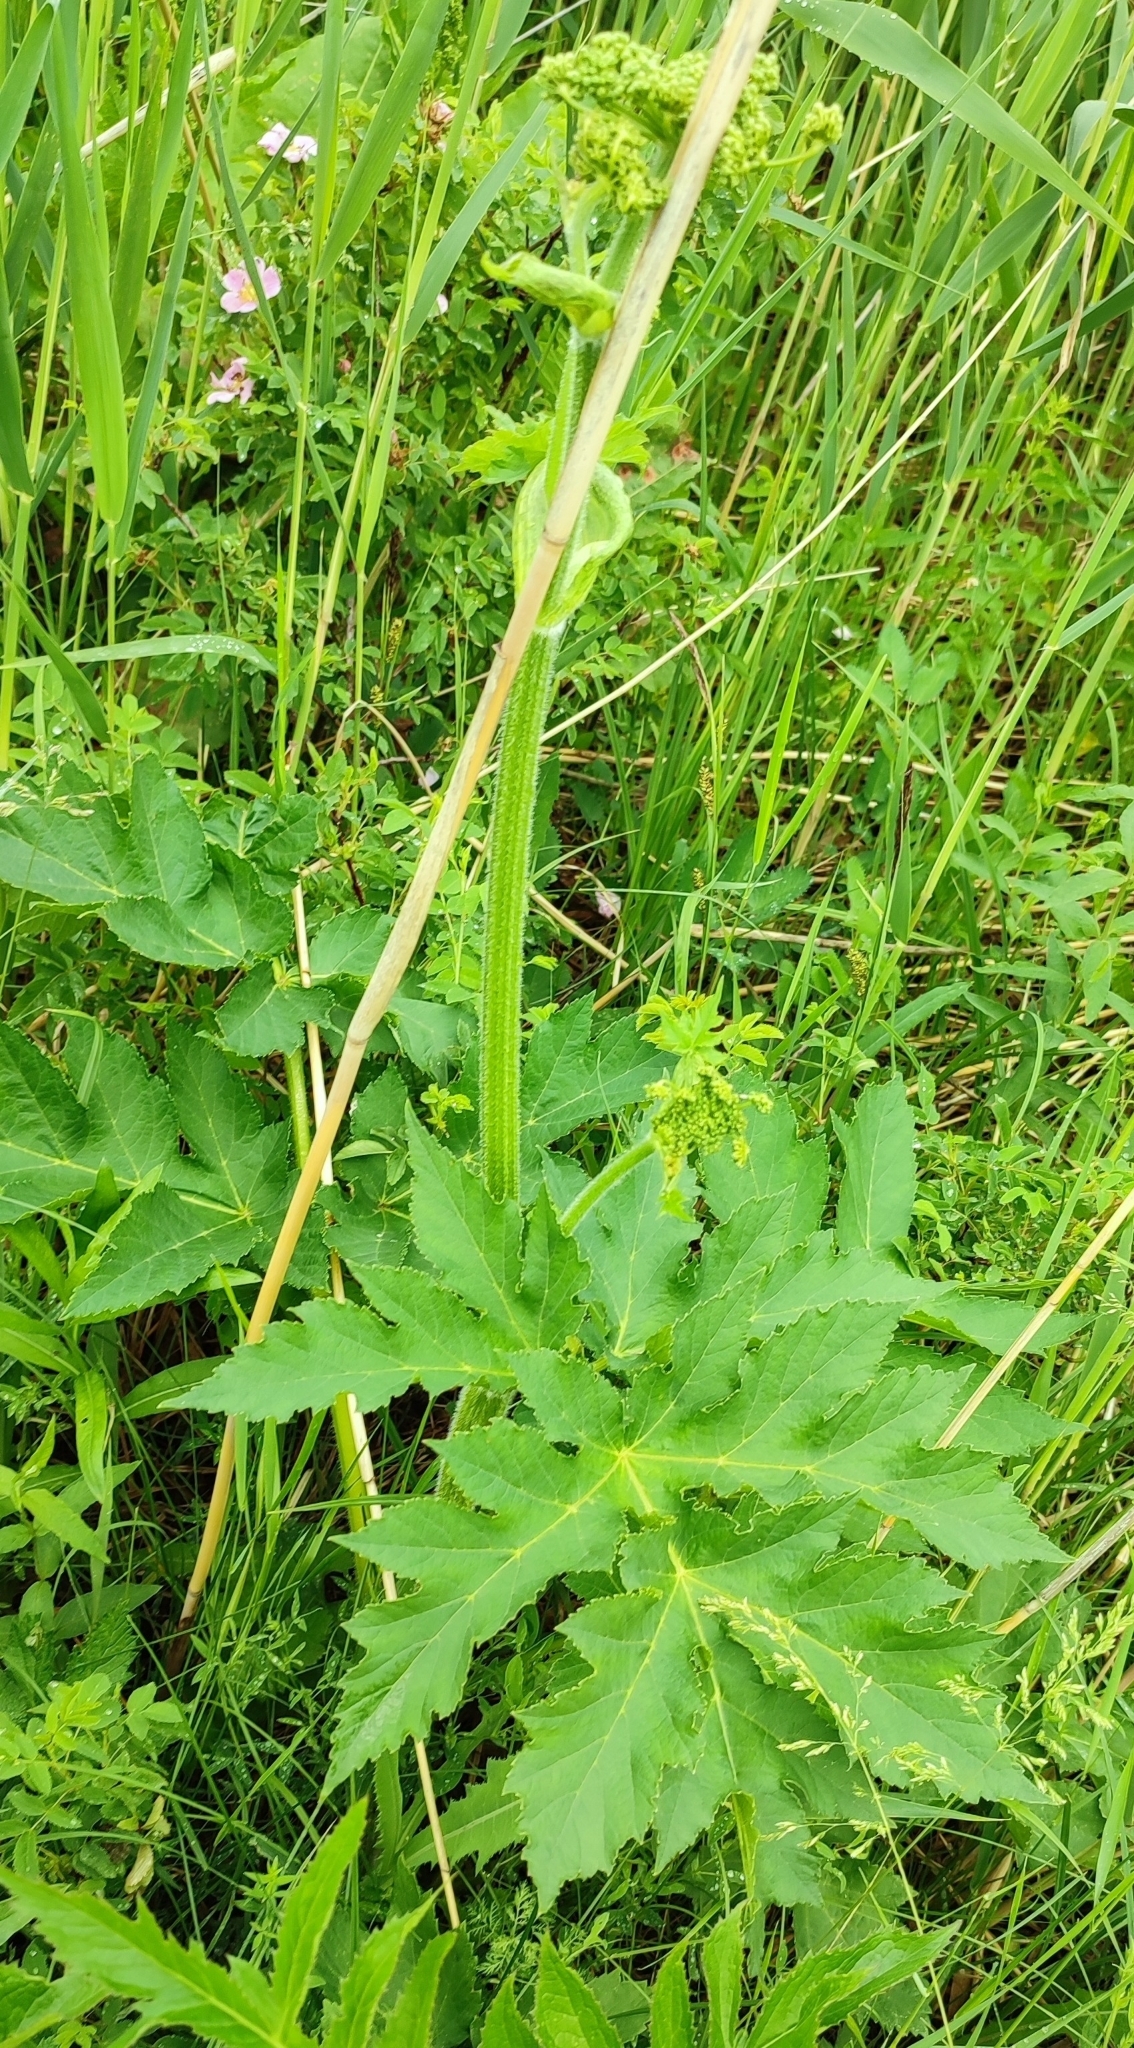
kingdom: Plantae
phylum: Tracheophyta
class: Magnoliopsida
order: Apiales
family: Apiaceae
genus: Heracleum
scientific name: Heracleum sphondylium
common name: Hogweed
